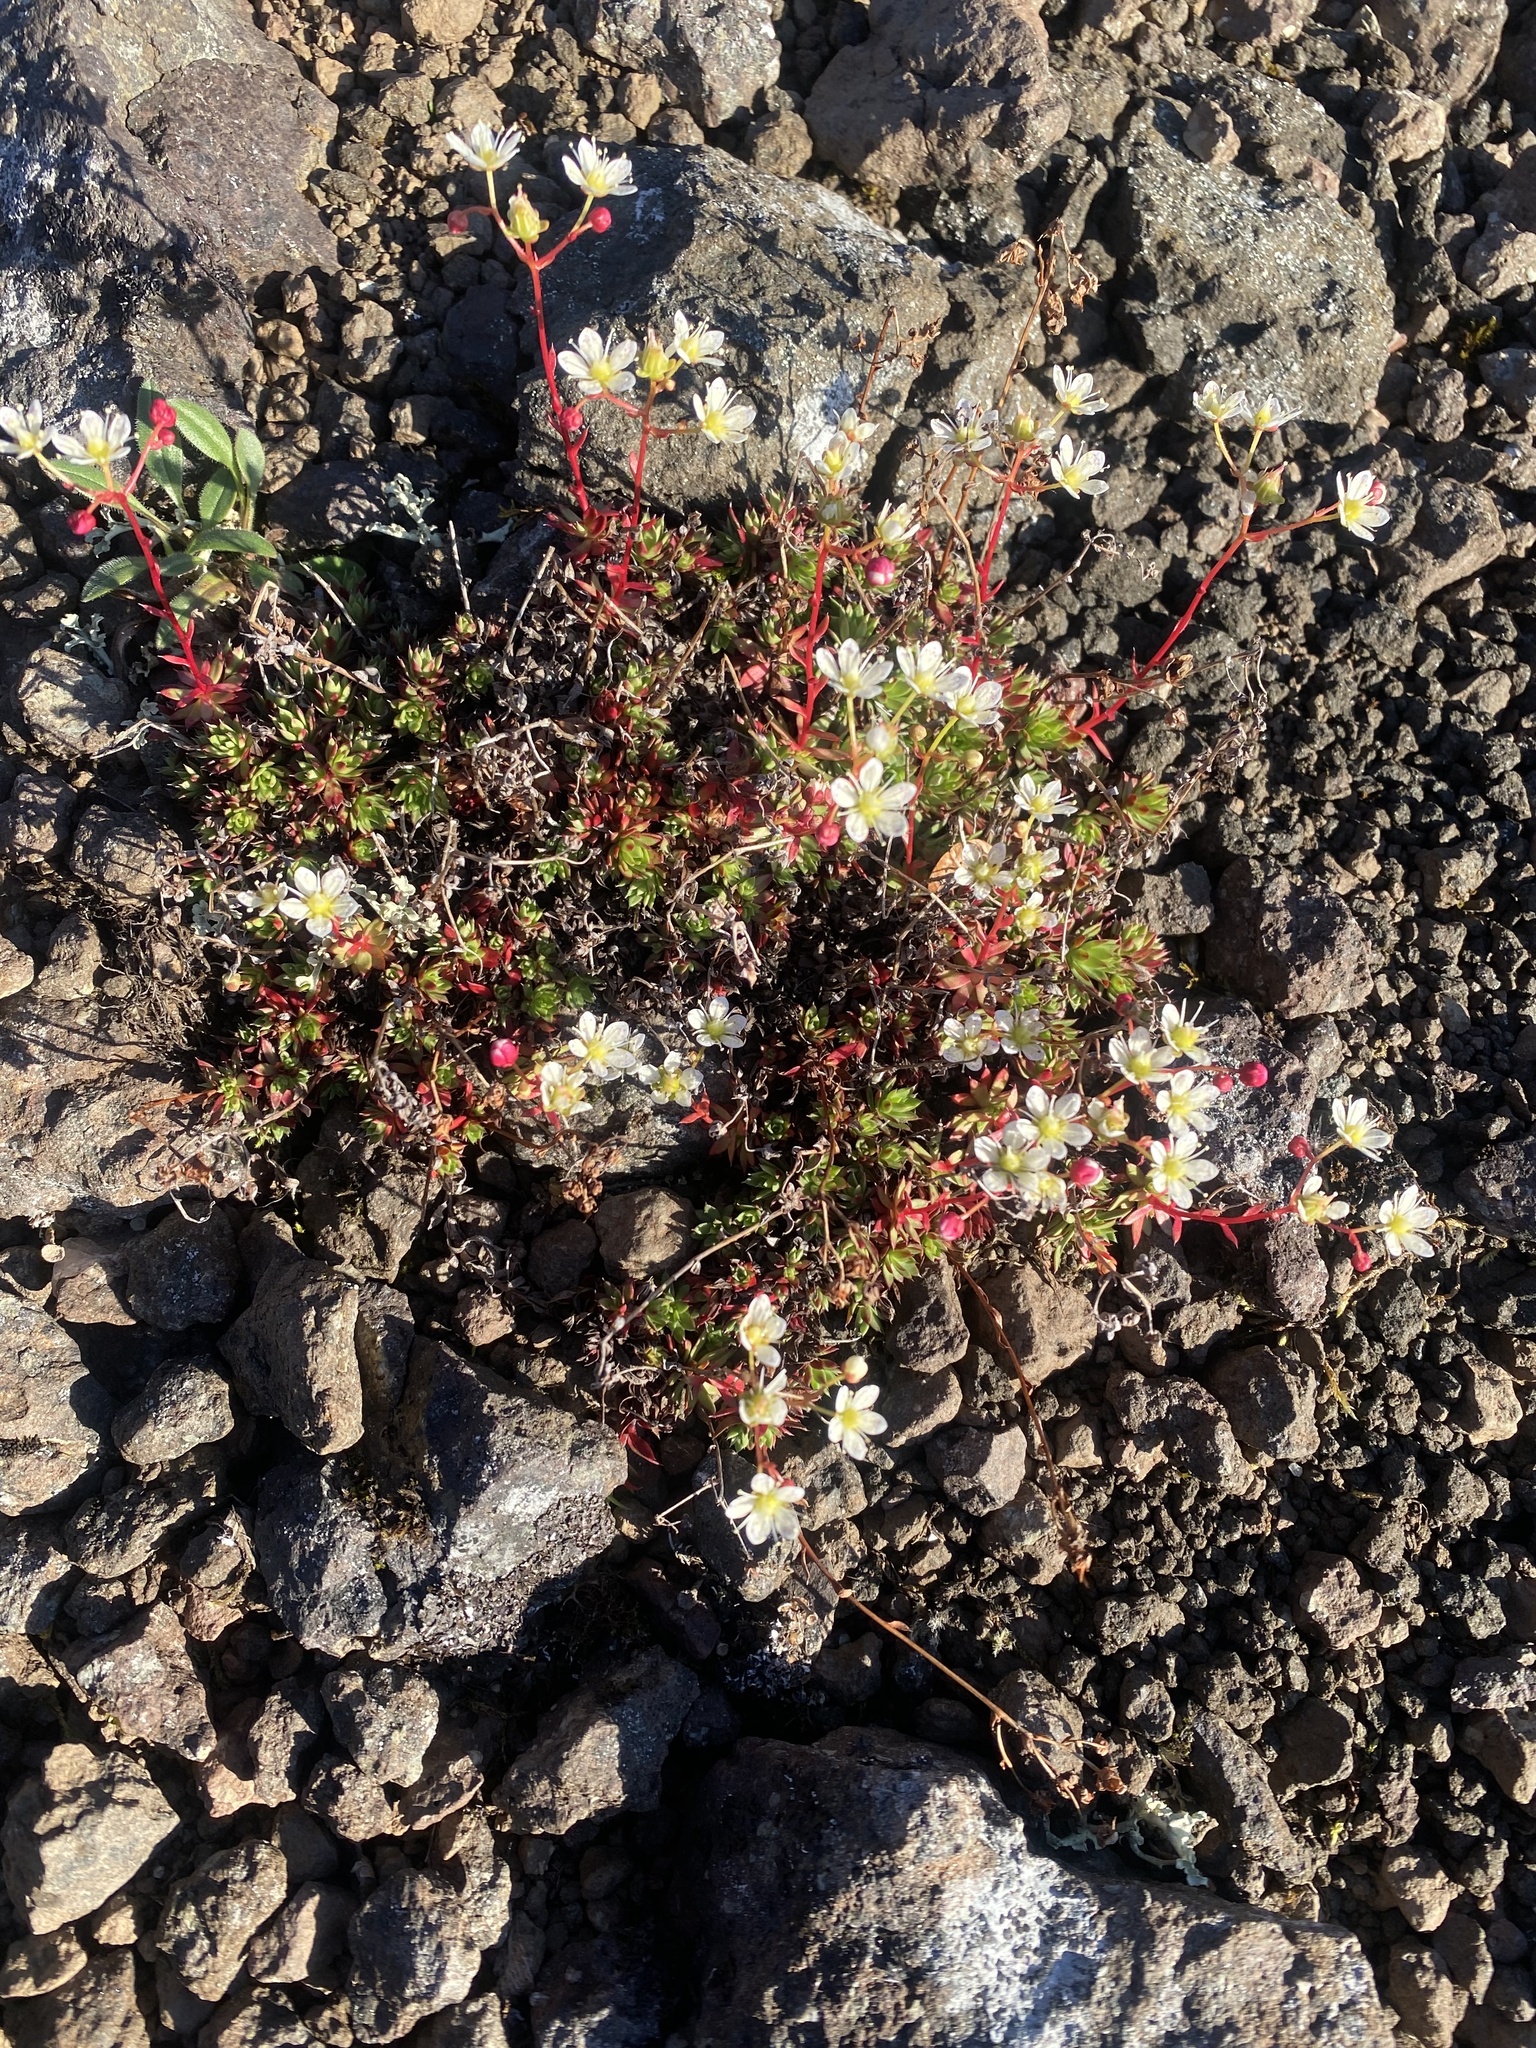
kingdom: Plantae
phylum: Tracheophyta
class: Magnoliopsida
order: Saxifragales
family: Saxifragaceae
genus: Saxifraga
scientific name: Saxifraga
